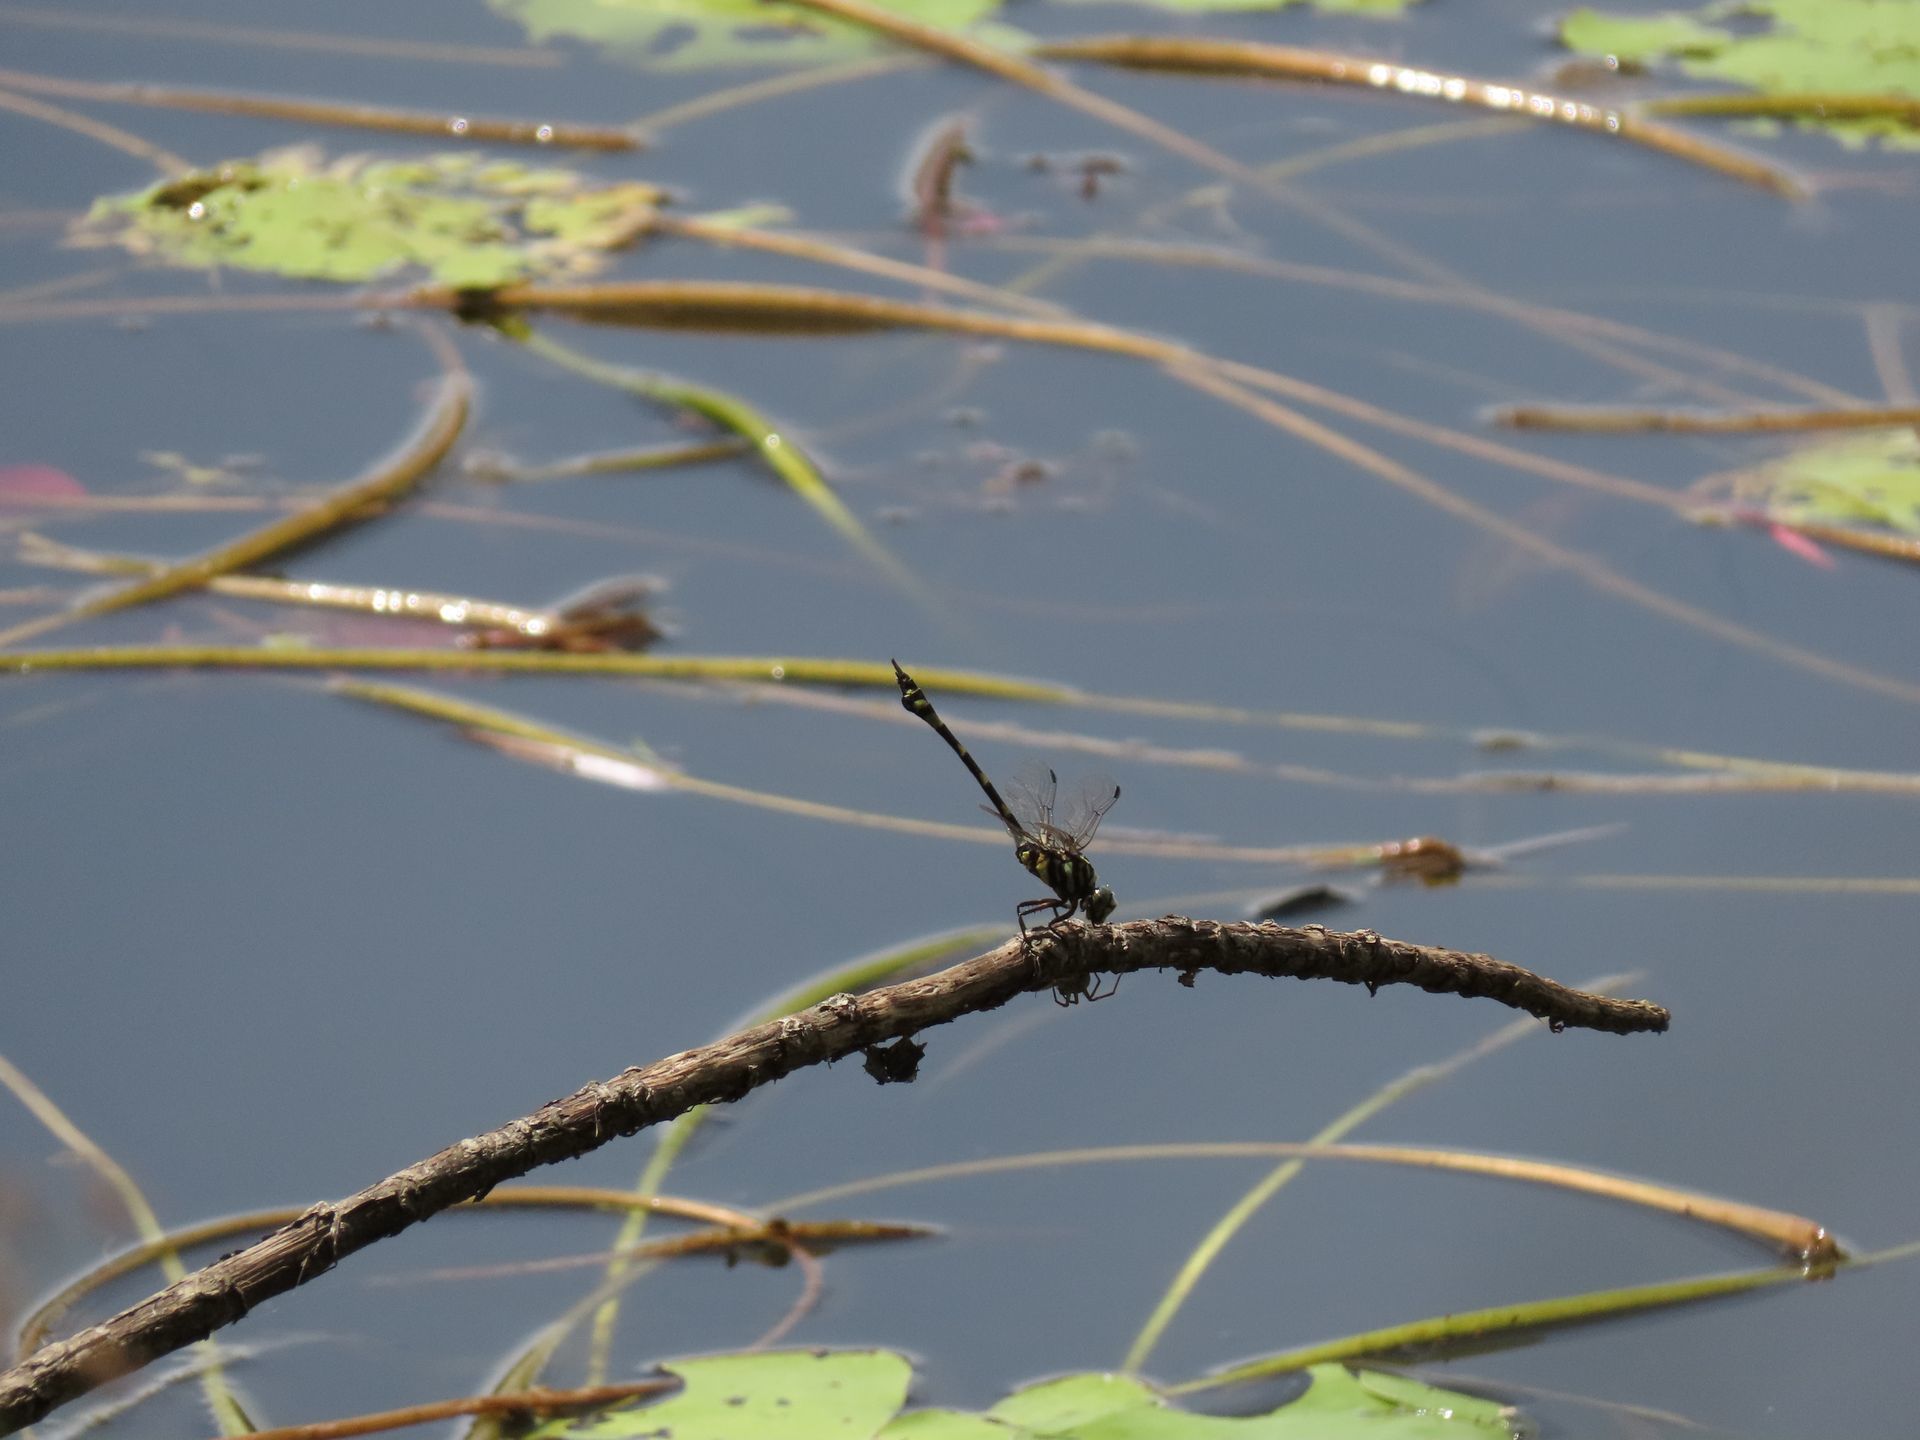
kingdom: Animalia
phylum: Arthropoda
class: Insecta
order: Odonata
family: Gomphidae
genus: Ictinogomphus
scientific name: Ictinogomphus australis
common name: Australian tiger
